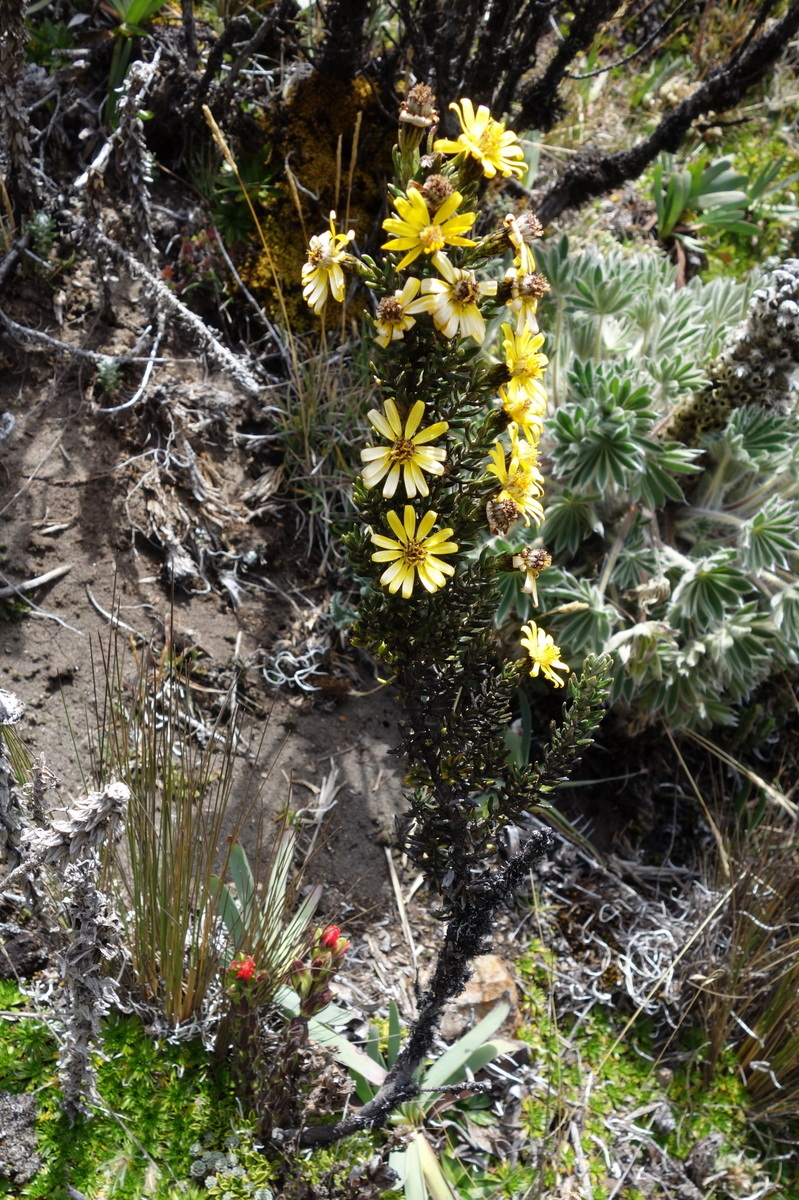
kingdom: Plantae
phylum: Tracheophyta
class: Magnoliopsida
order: Asterales
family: Asteraceae
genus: Monticalia
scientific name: Monticalia peruviana
